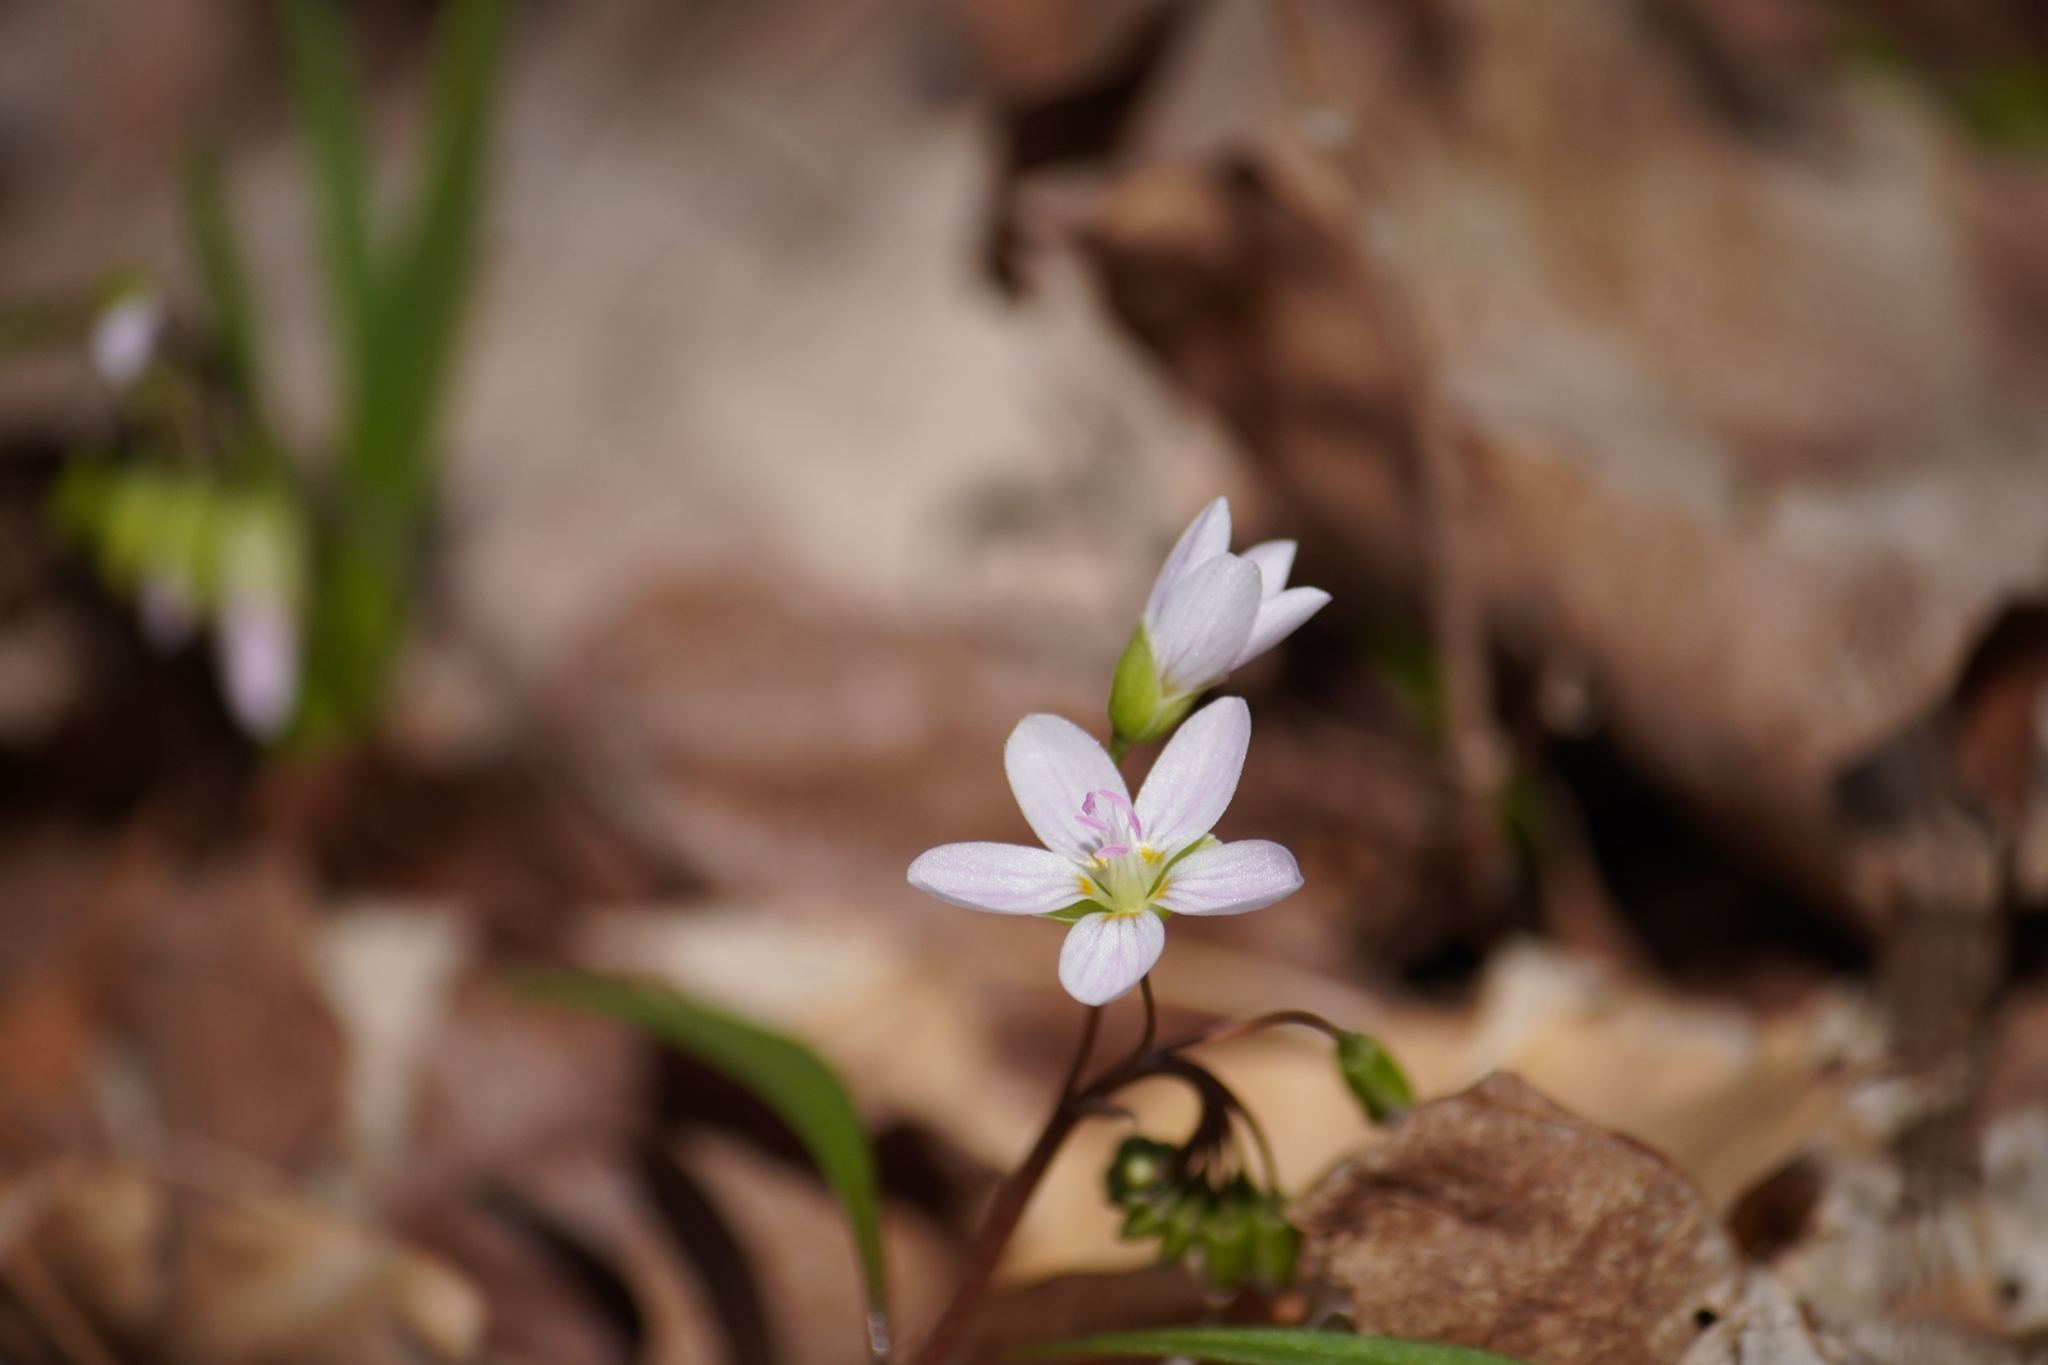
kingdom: Plantae
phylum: Tracheophyta
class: Magnoliopsida
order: Caryophyllales
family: Montiaceae
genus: Claytonia
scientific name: Claytonia virginica
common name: Virginia springbeauty
